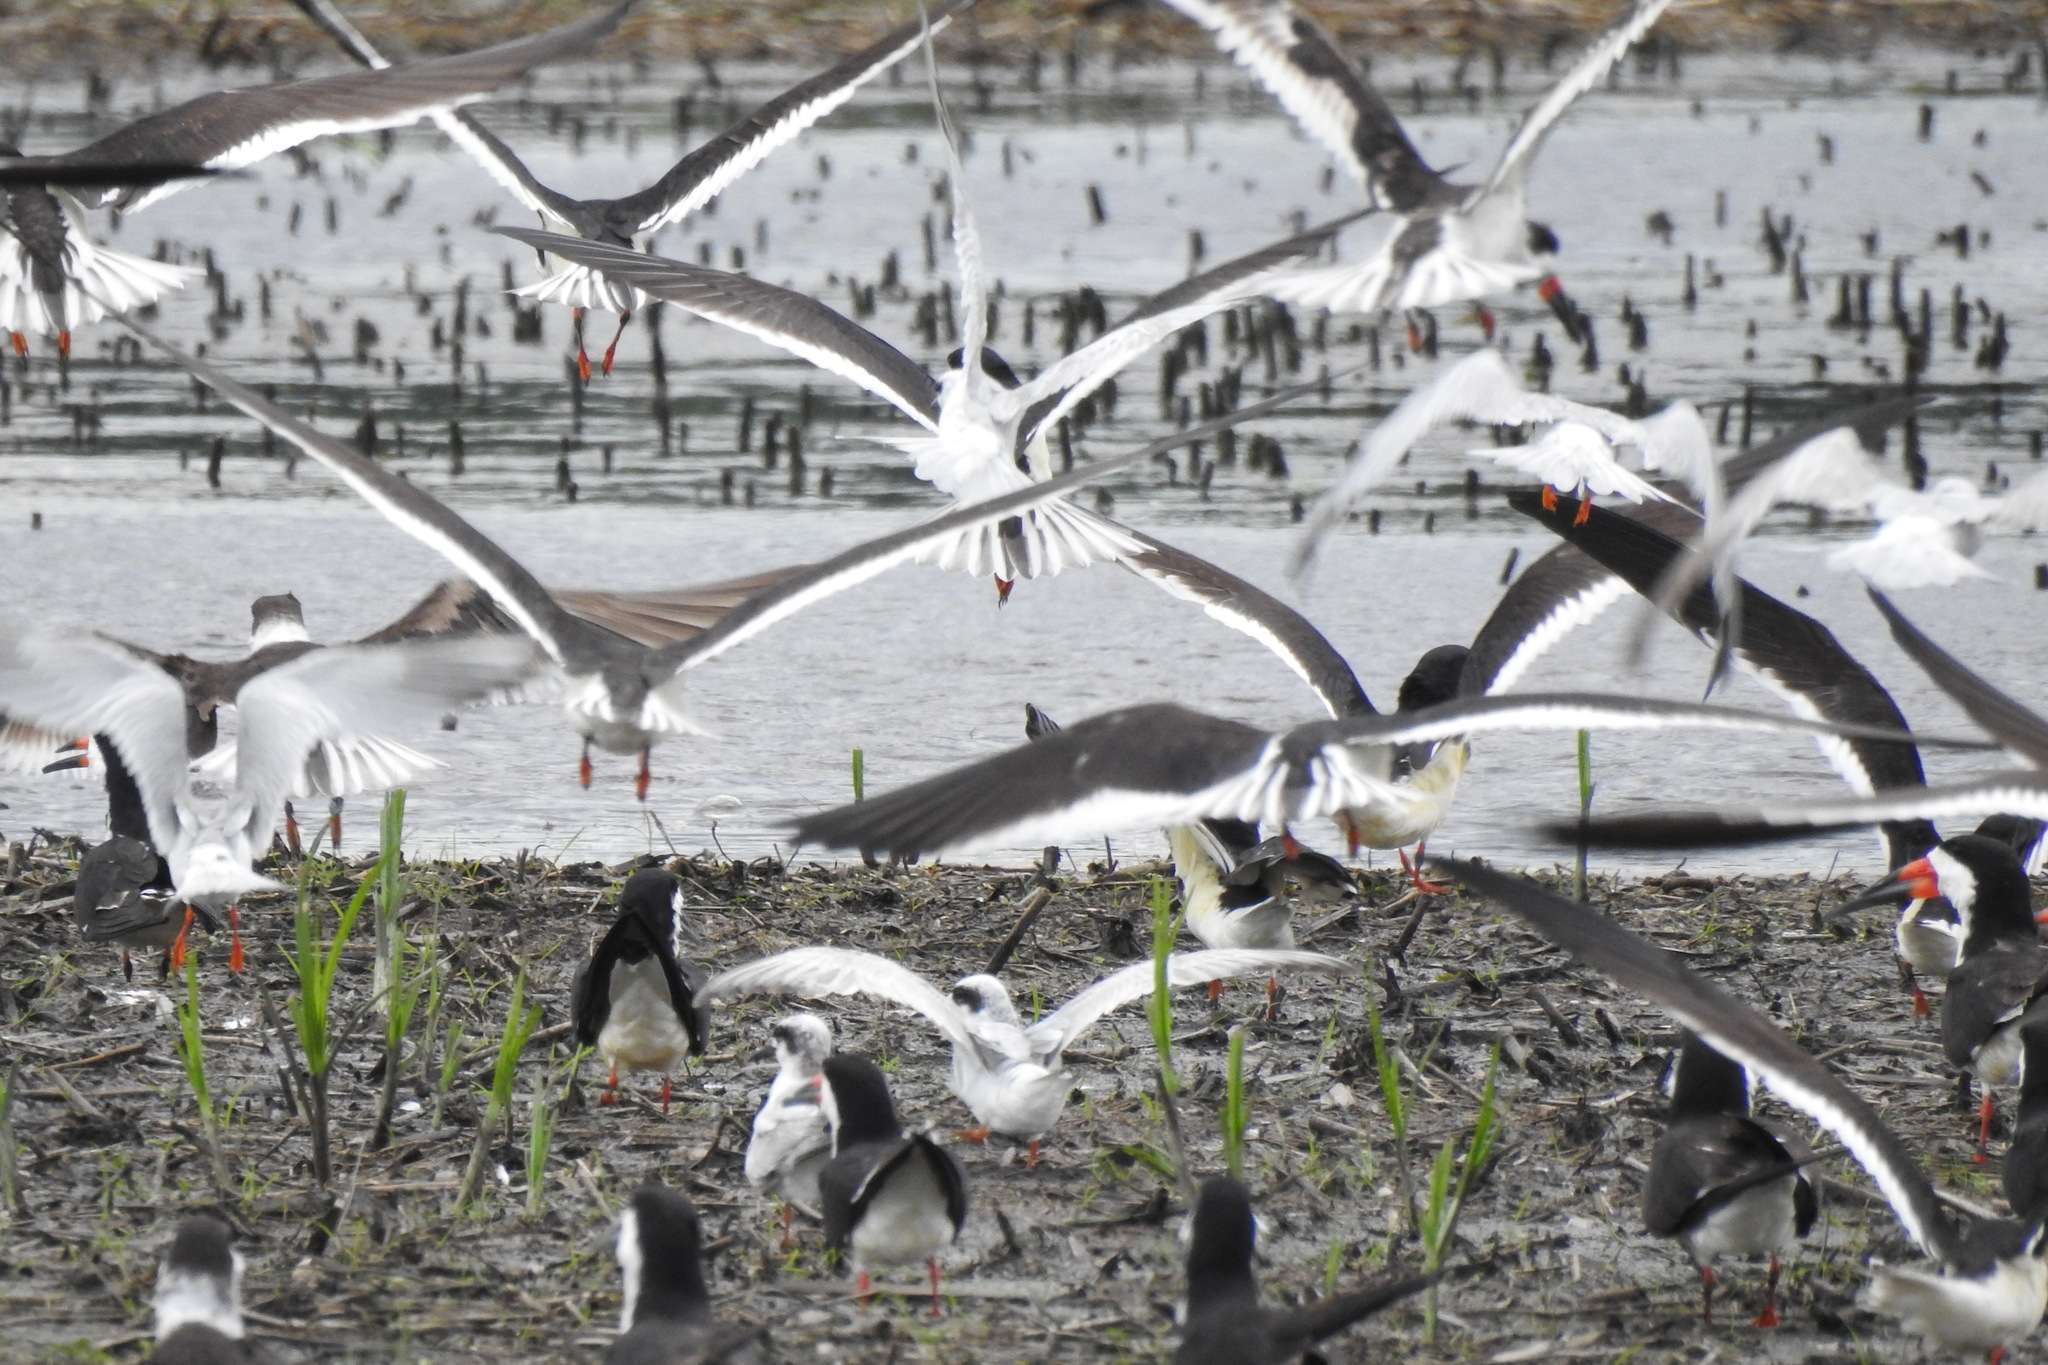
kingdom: Animalia
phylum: Chordata
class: Aves
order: Charadriiformes
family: Laridae
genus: Rynchops
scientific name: Rynchops niger
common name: Black skimmer
